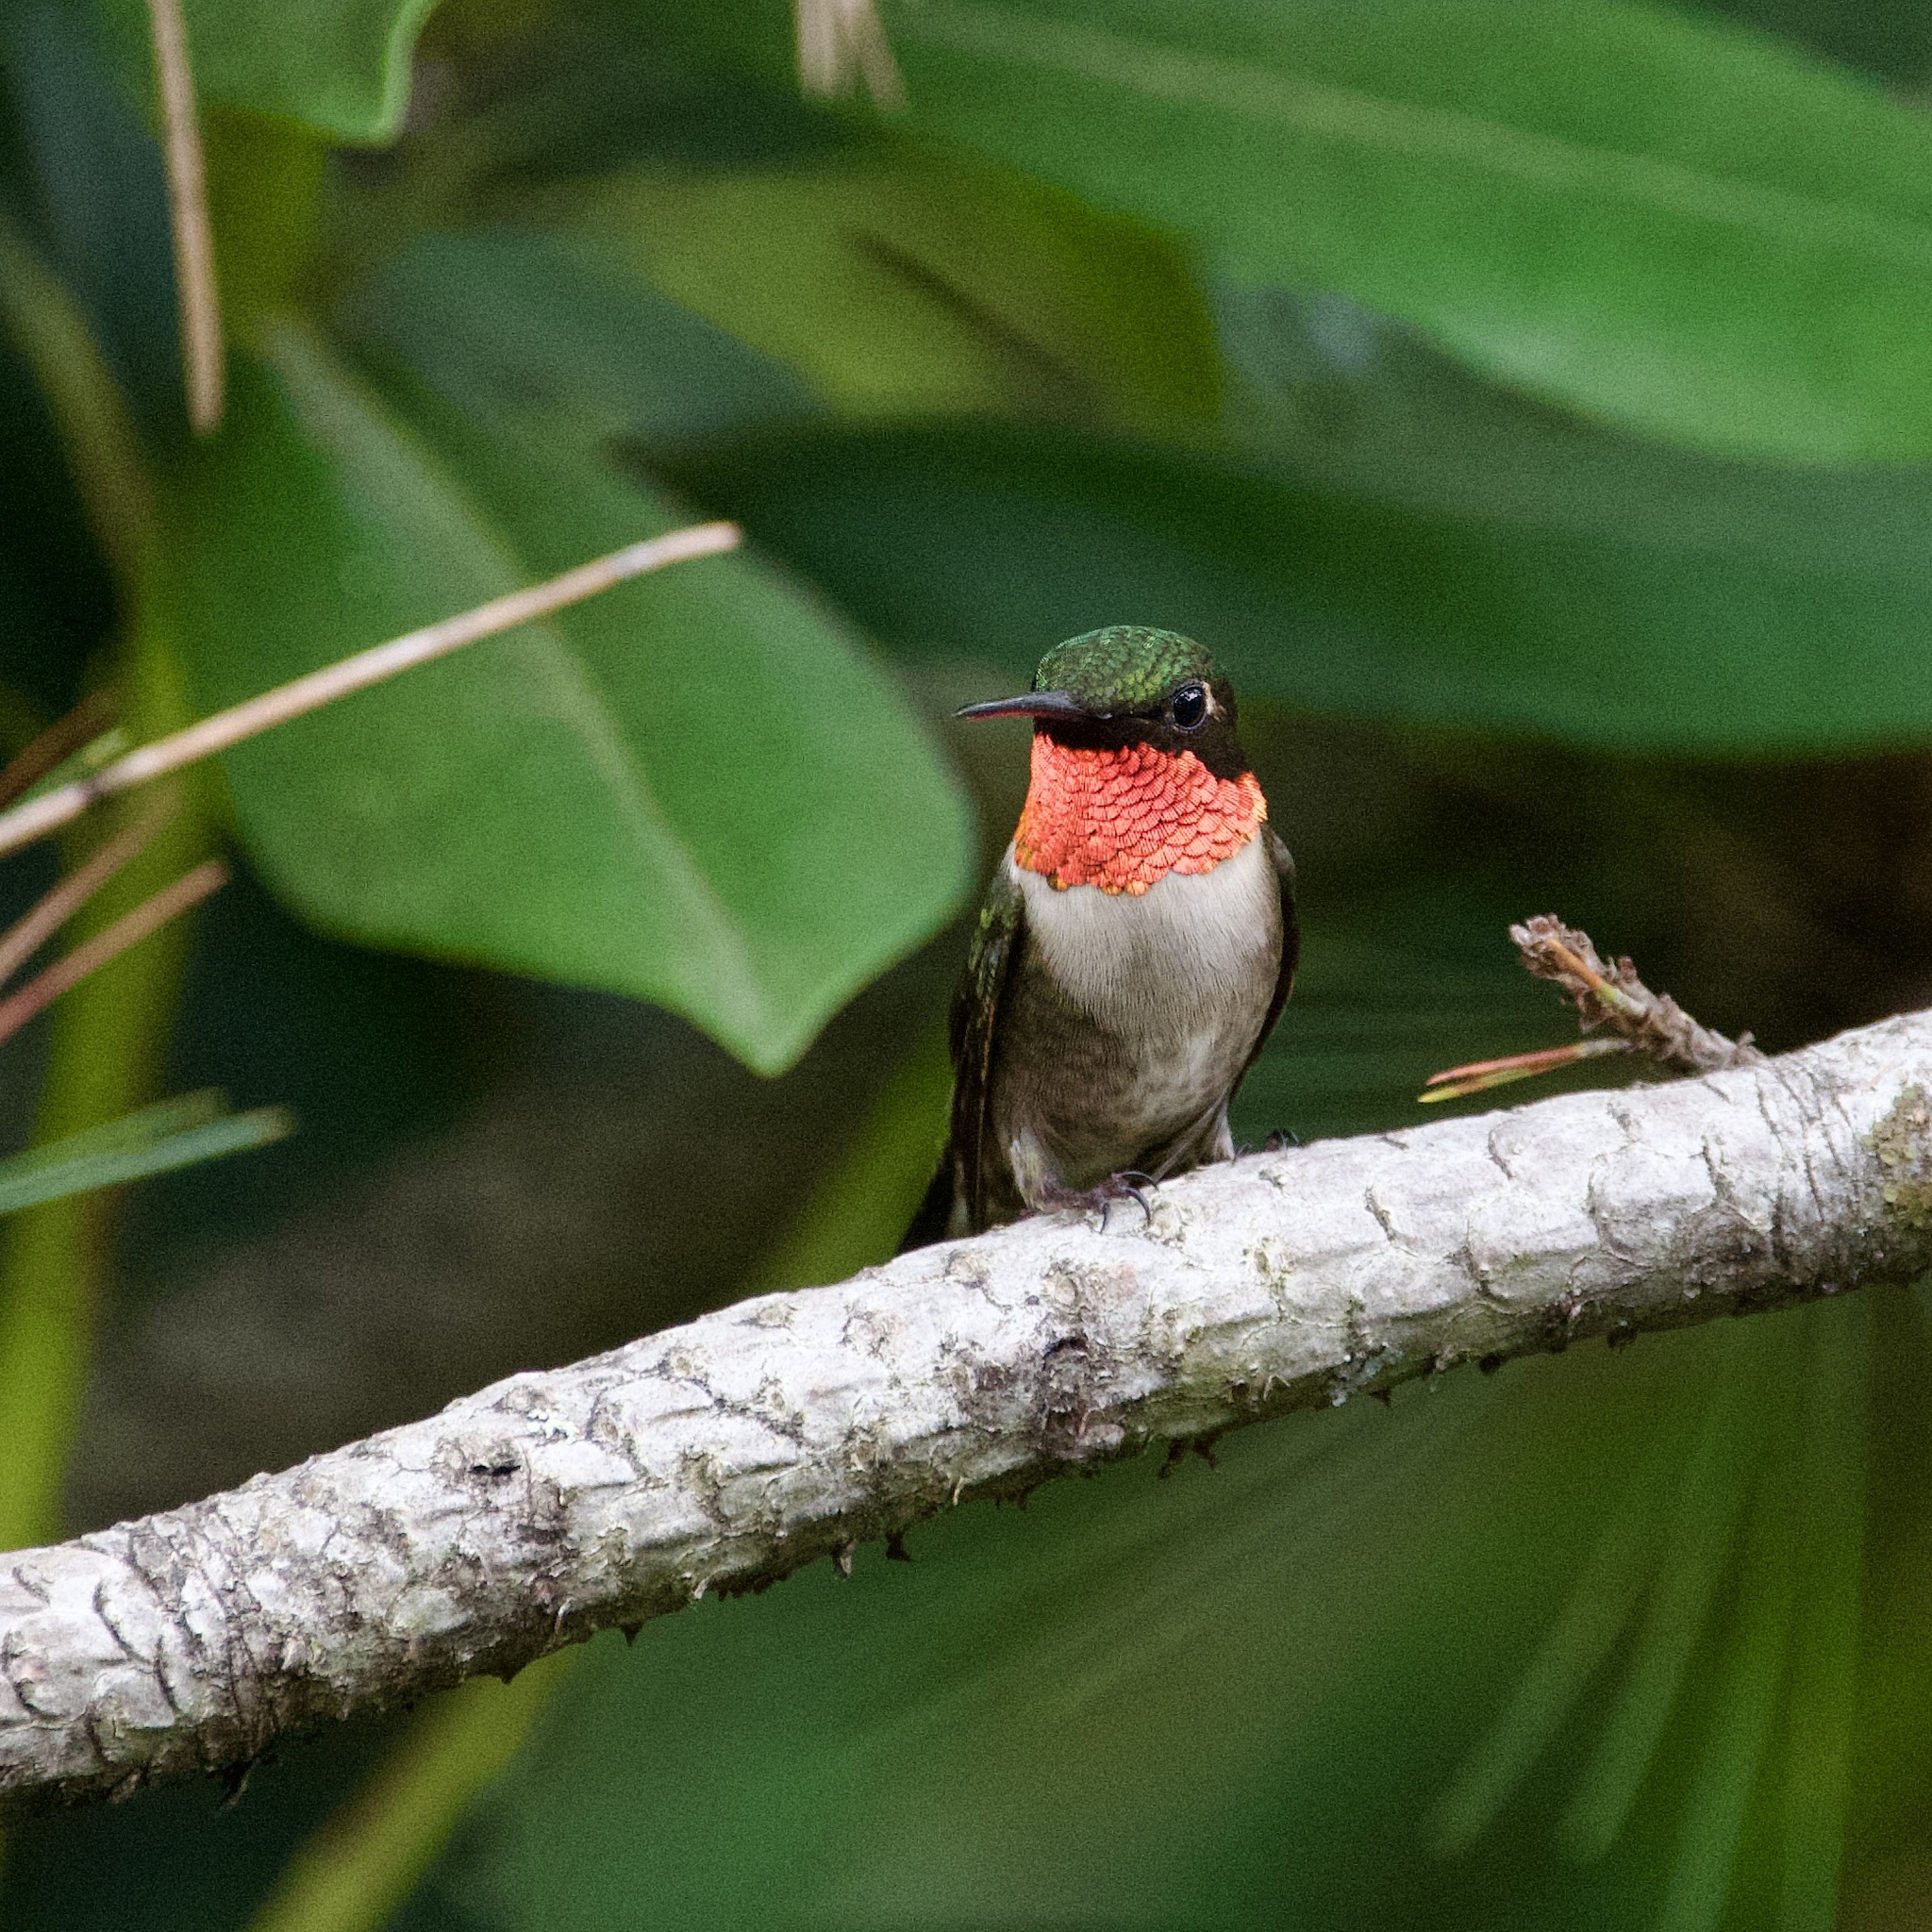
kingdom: Animalia
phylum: Chordata
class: Aves
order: Apodiformes
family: Trochilidae
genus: Archilochus
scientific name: Archilochus colubris
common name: Ruby-throated hummingbird
